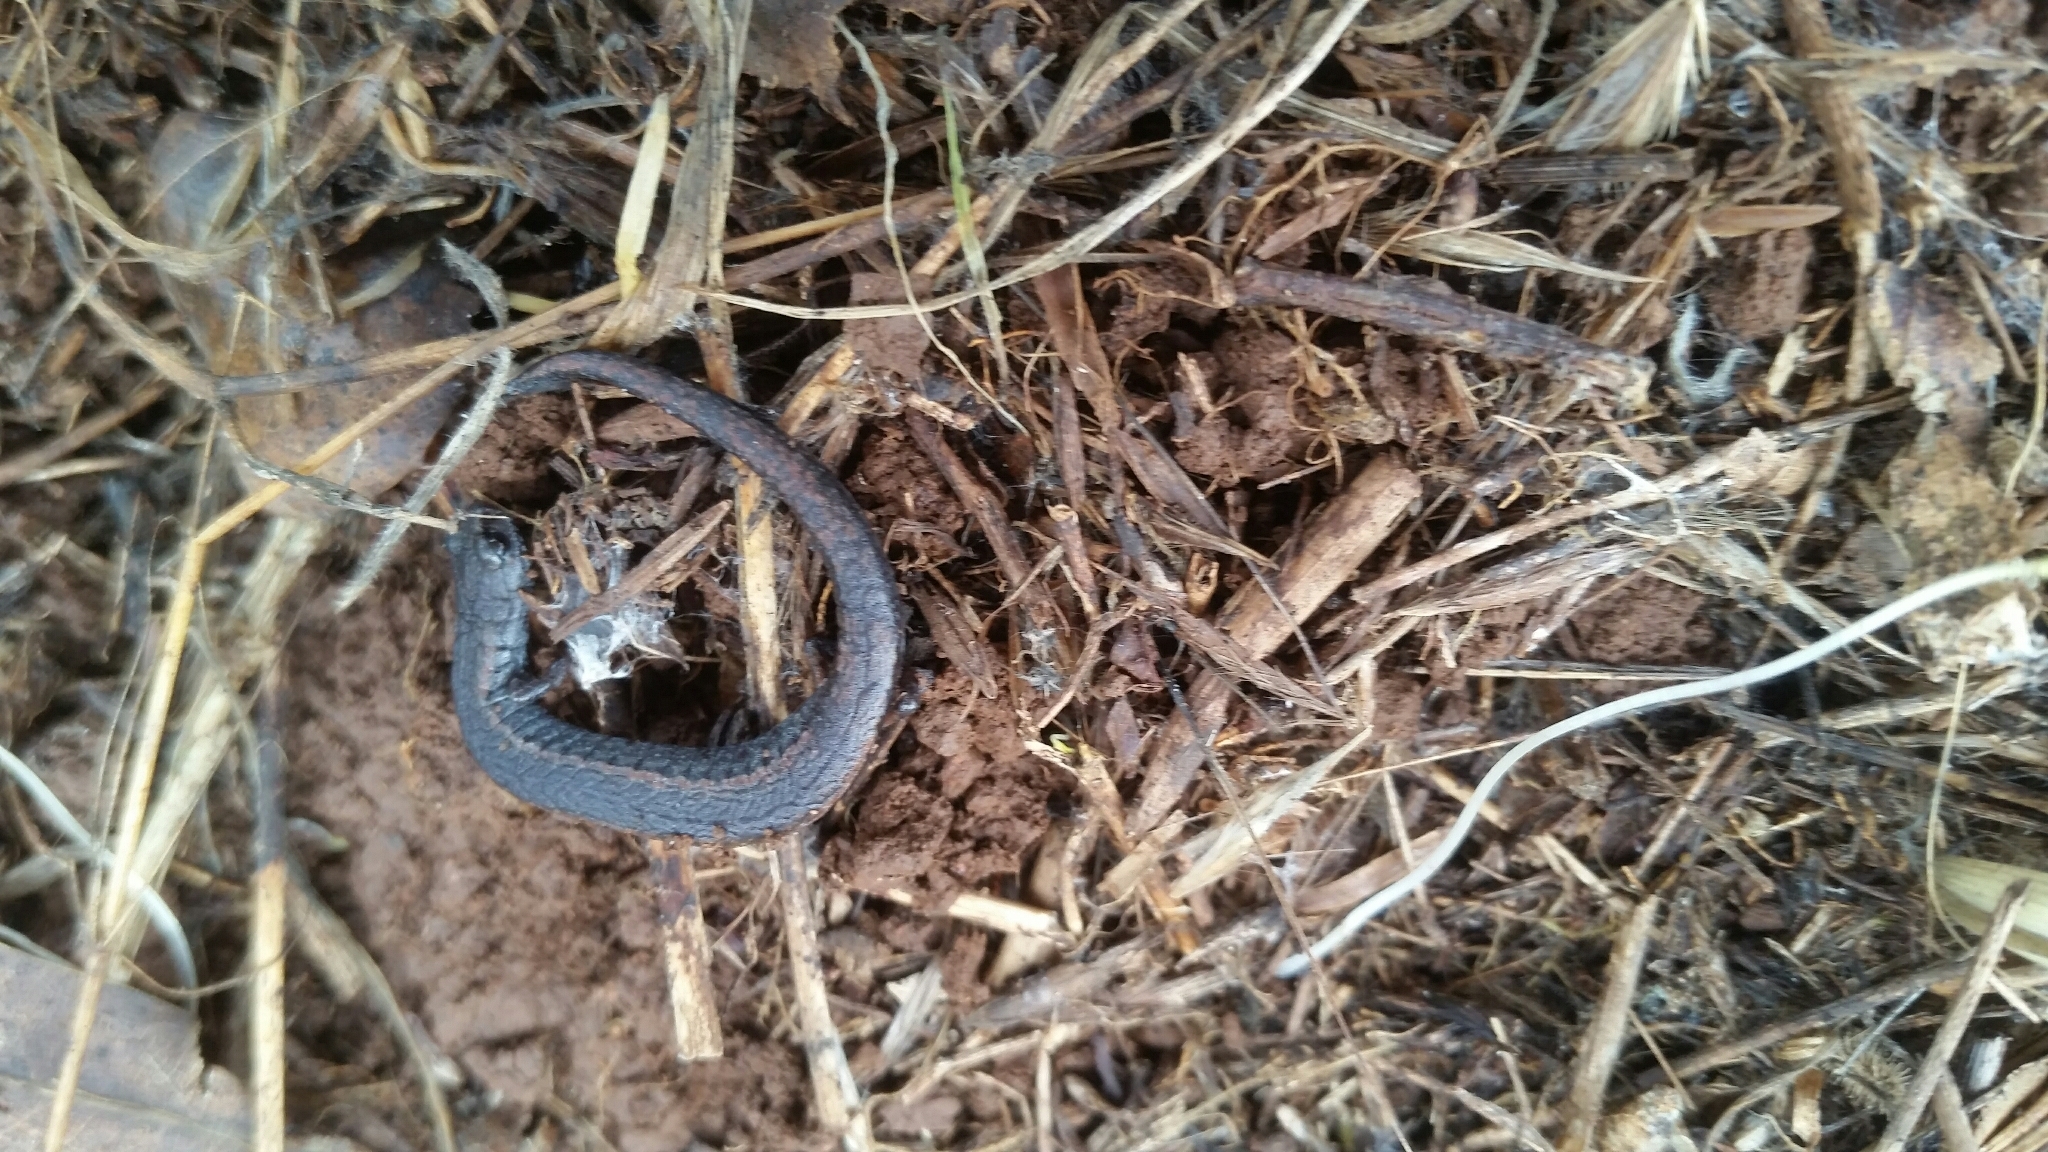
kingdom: Animalia
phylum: Chordata
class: Amphibia
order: Caudata
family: Plethodontidae
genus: Batrachoseps
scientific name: Batrachoseps attenuatus
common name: California slender salamander
